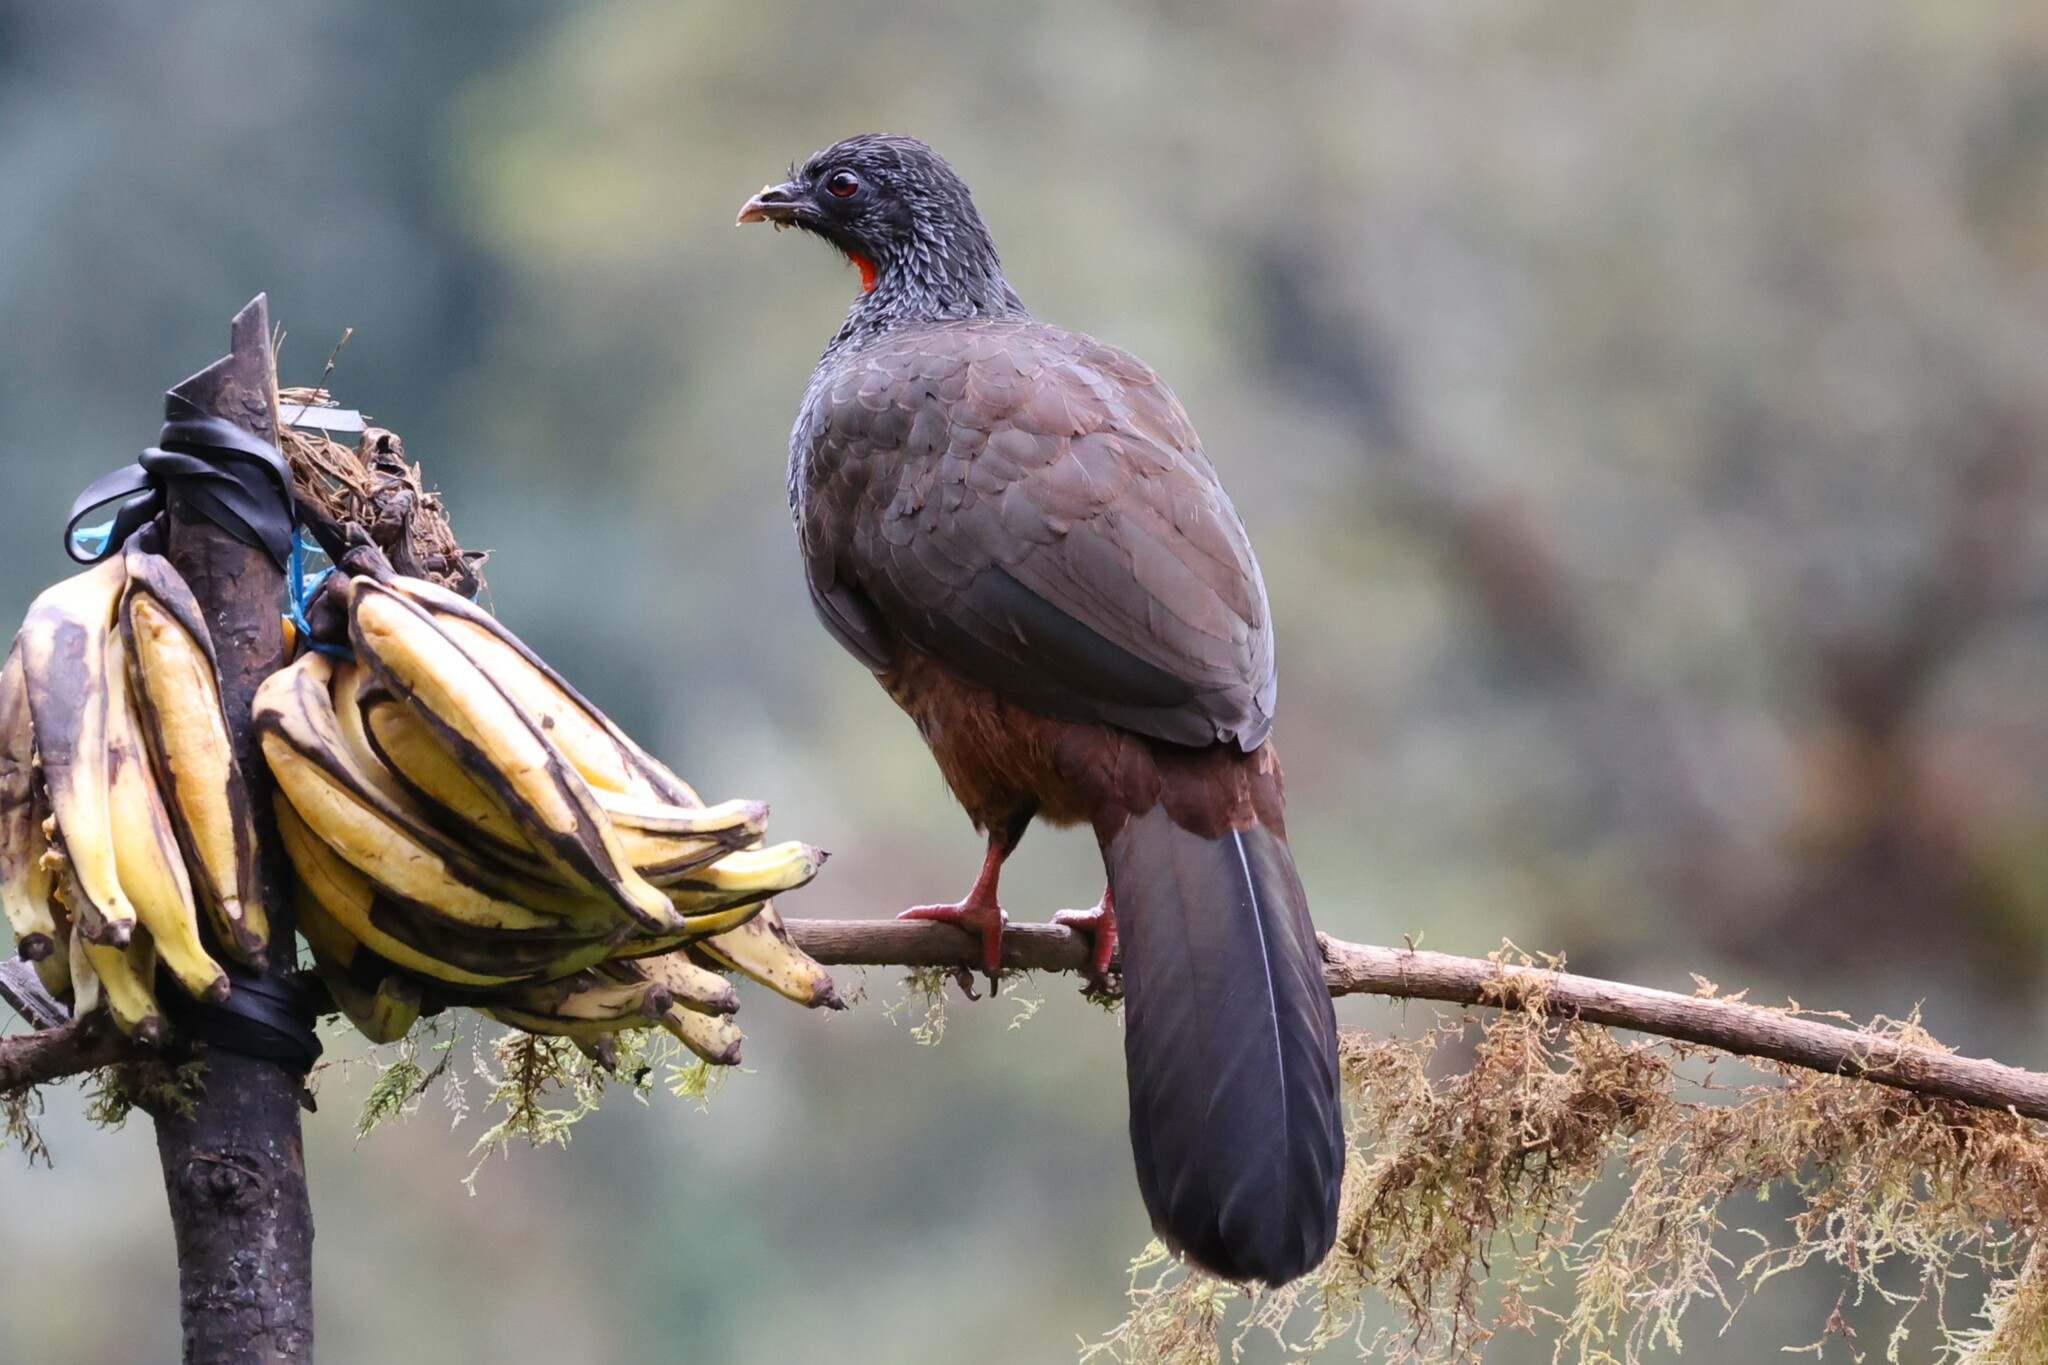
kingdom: Animalia
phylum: Chordata
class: Aves
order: Galliformes
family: Cracidae
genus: Penelope
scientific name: Penelope montagnii
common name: Andean guan
